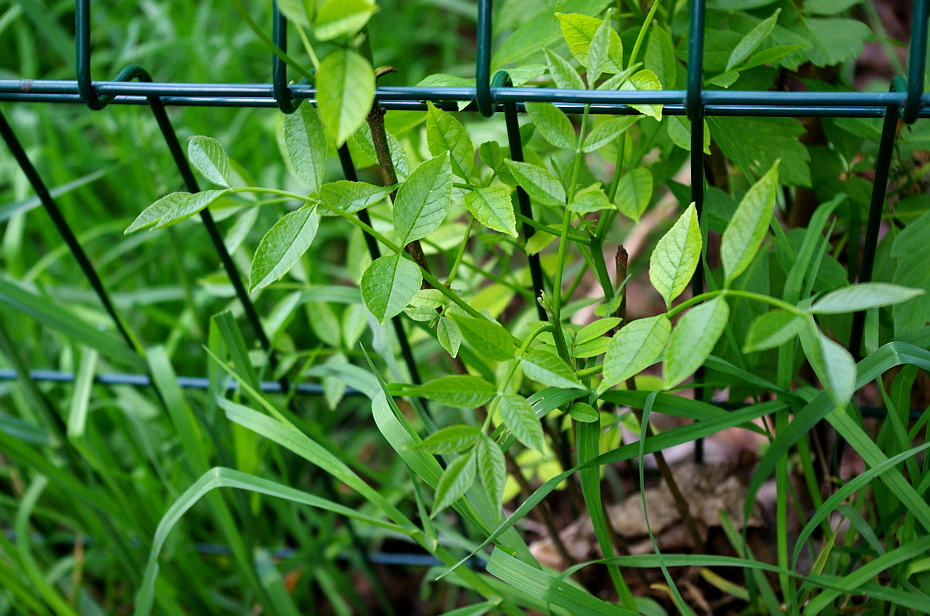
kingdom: Plantae
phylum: Tracheophyta
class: Magnoliopsida
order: Lamiales
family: Oleaceae
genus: Fraxinus
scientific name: Fraxinus pennsylvanica
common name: Green ash
